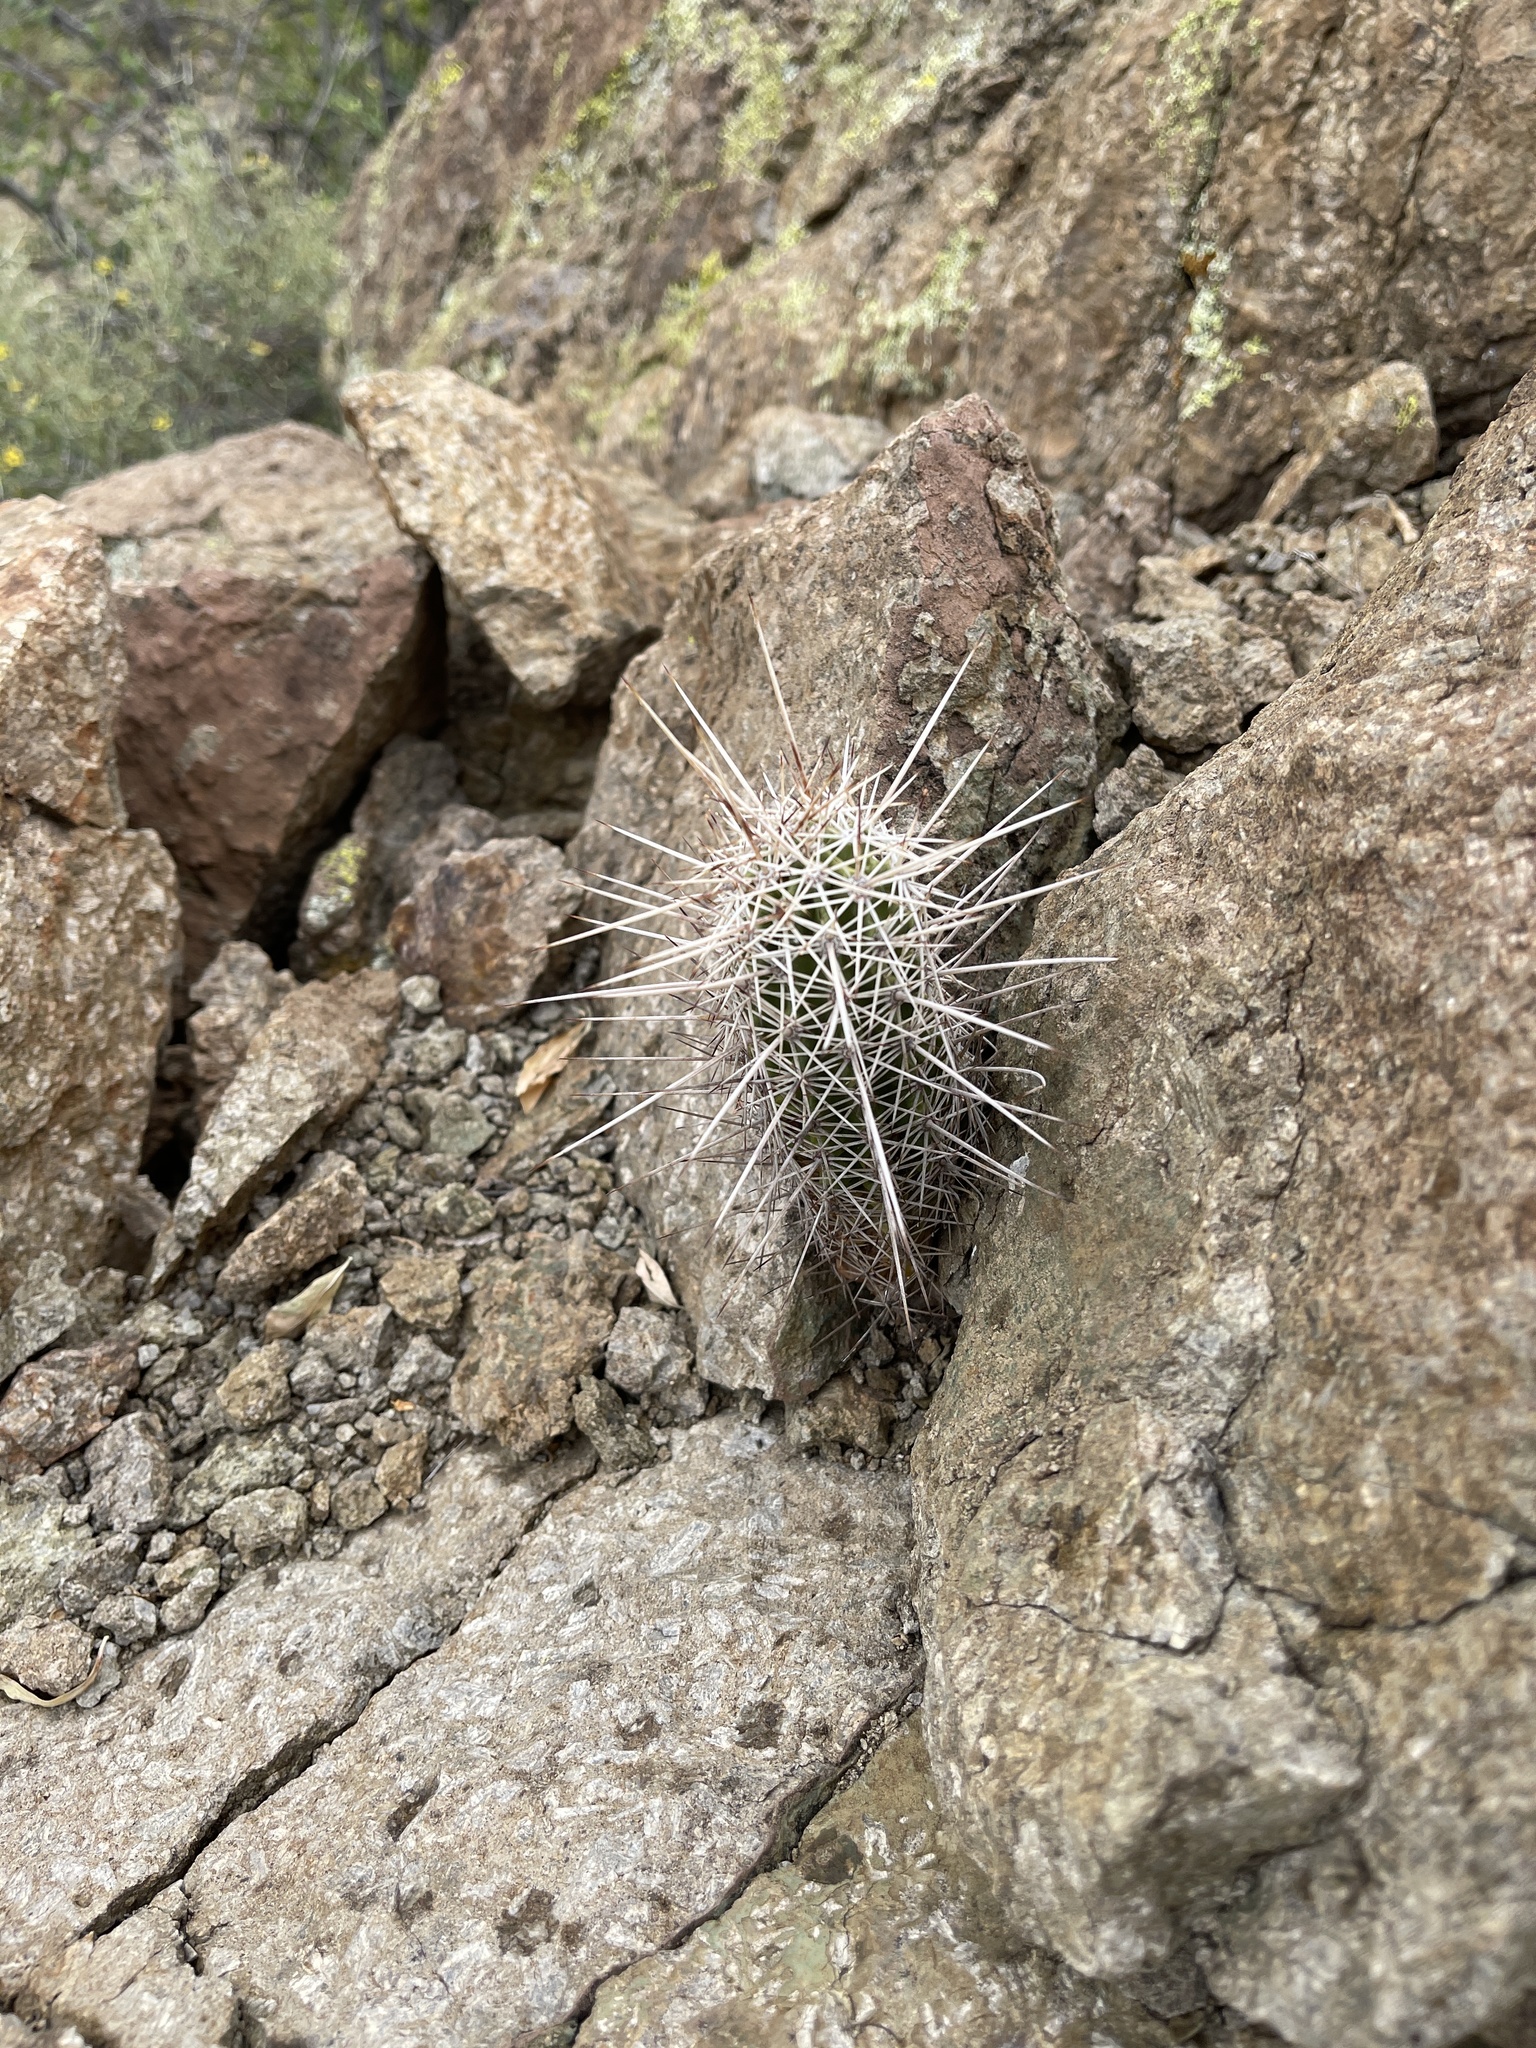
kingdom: Plantae
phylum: Tracheophyta
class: Magnoliopsida
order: Caryophyllales
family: Cactaceae
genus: Echinocereus
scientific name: Echinocereus fasciculatus
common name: Bundle hedgehog
